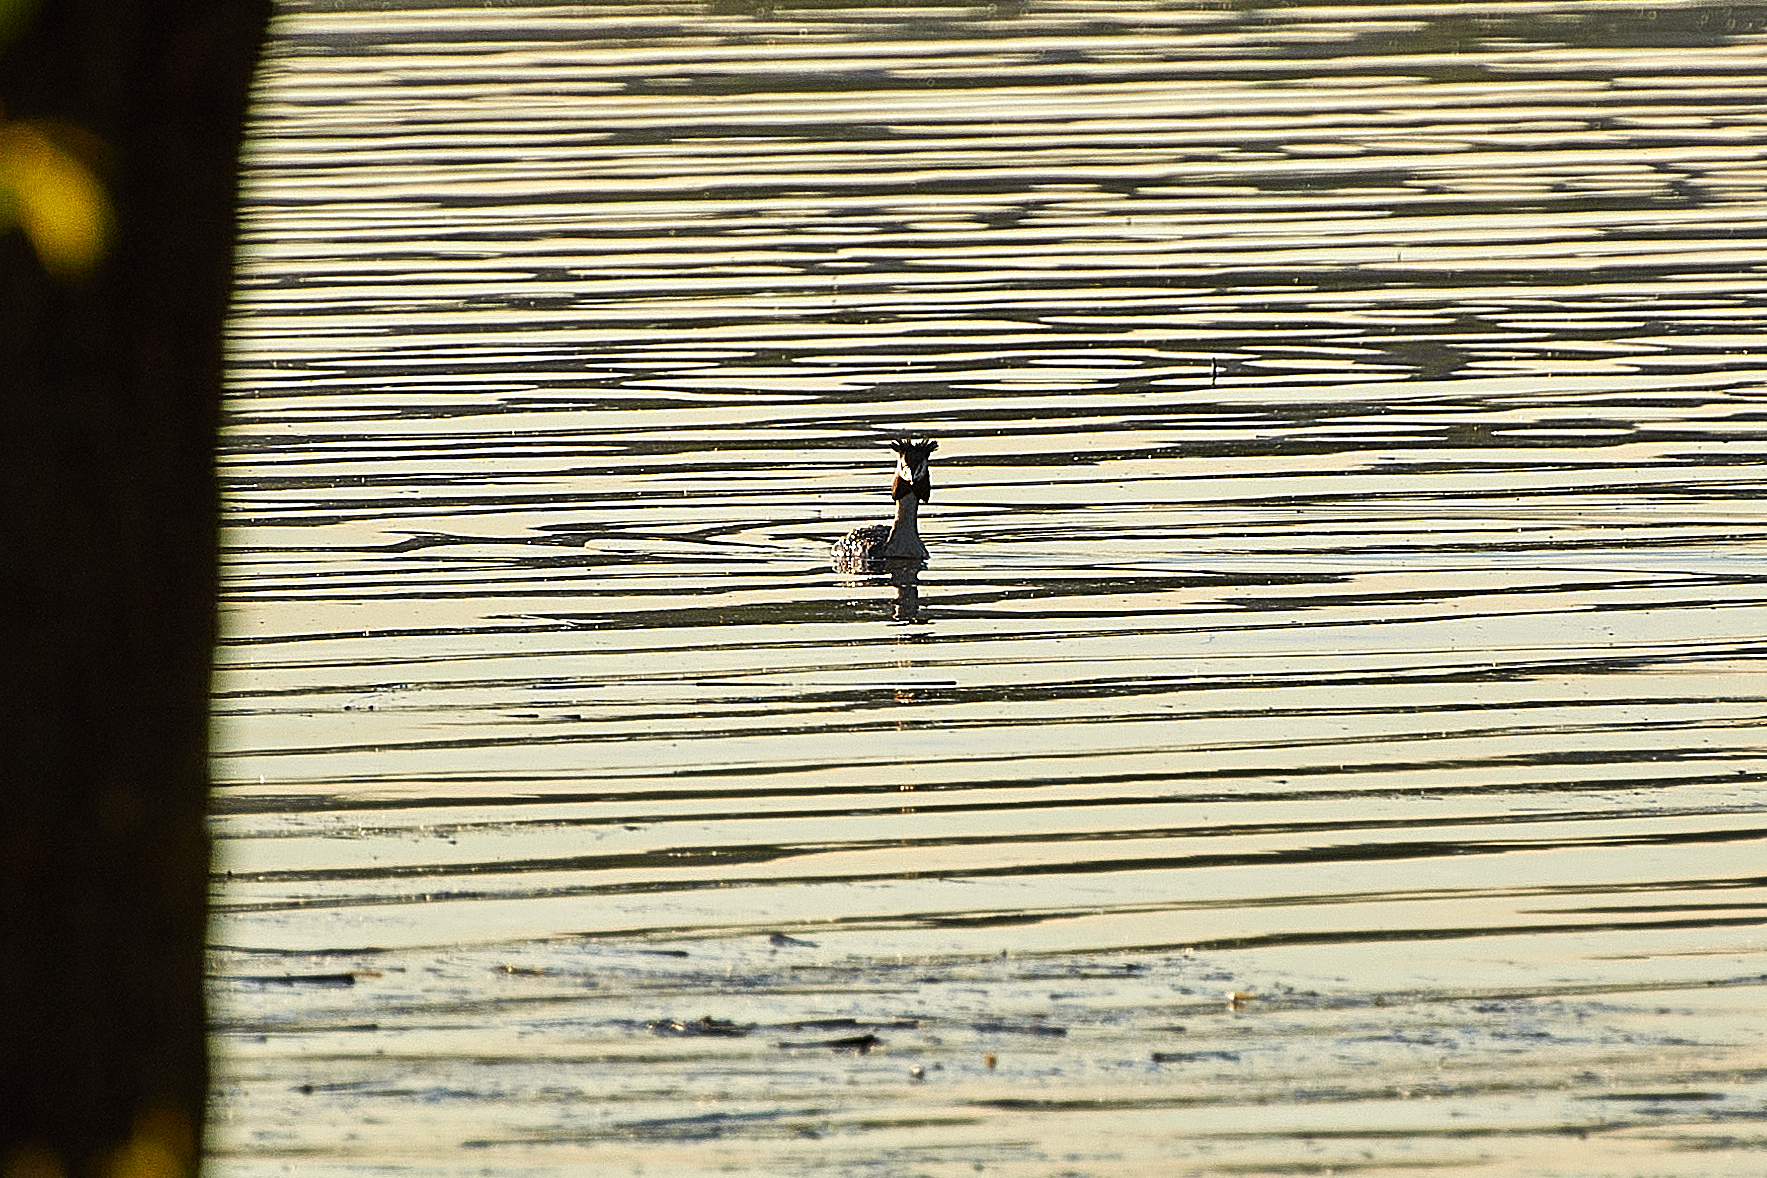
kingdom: Animalia
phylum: Chordata
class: Aves
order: Podicipediformes
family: Podicipedidae
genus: Podiceps
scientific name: Podiceps cristatus
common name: Great crested grebe
